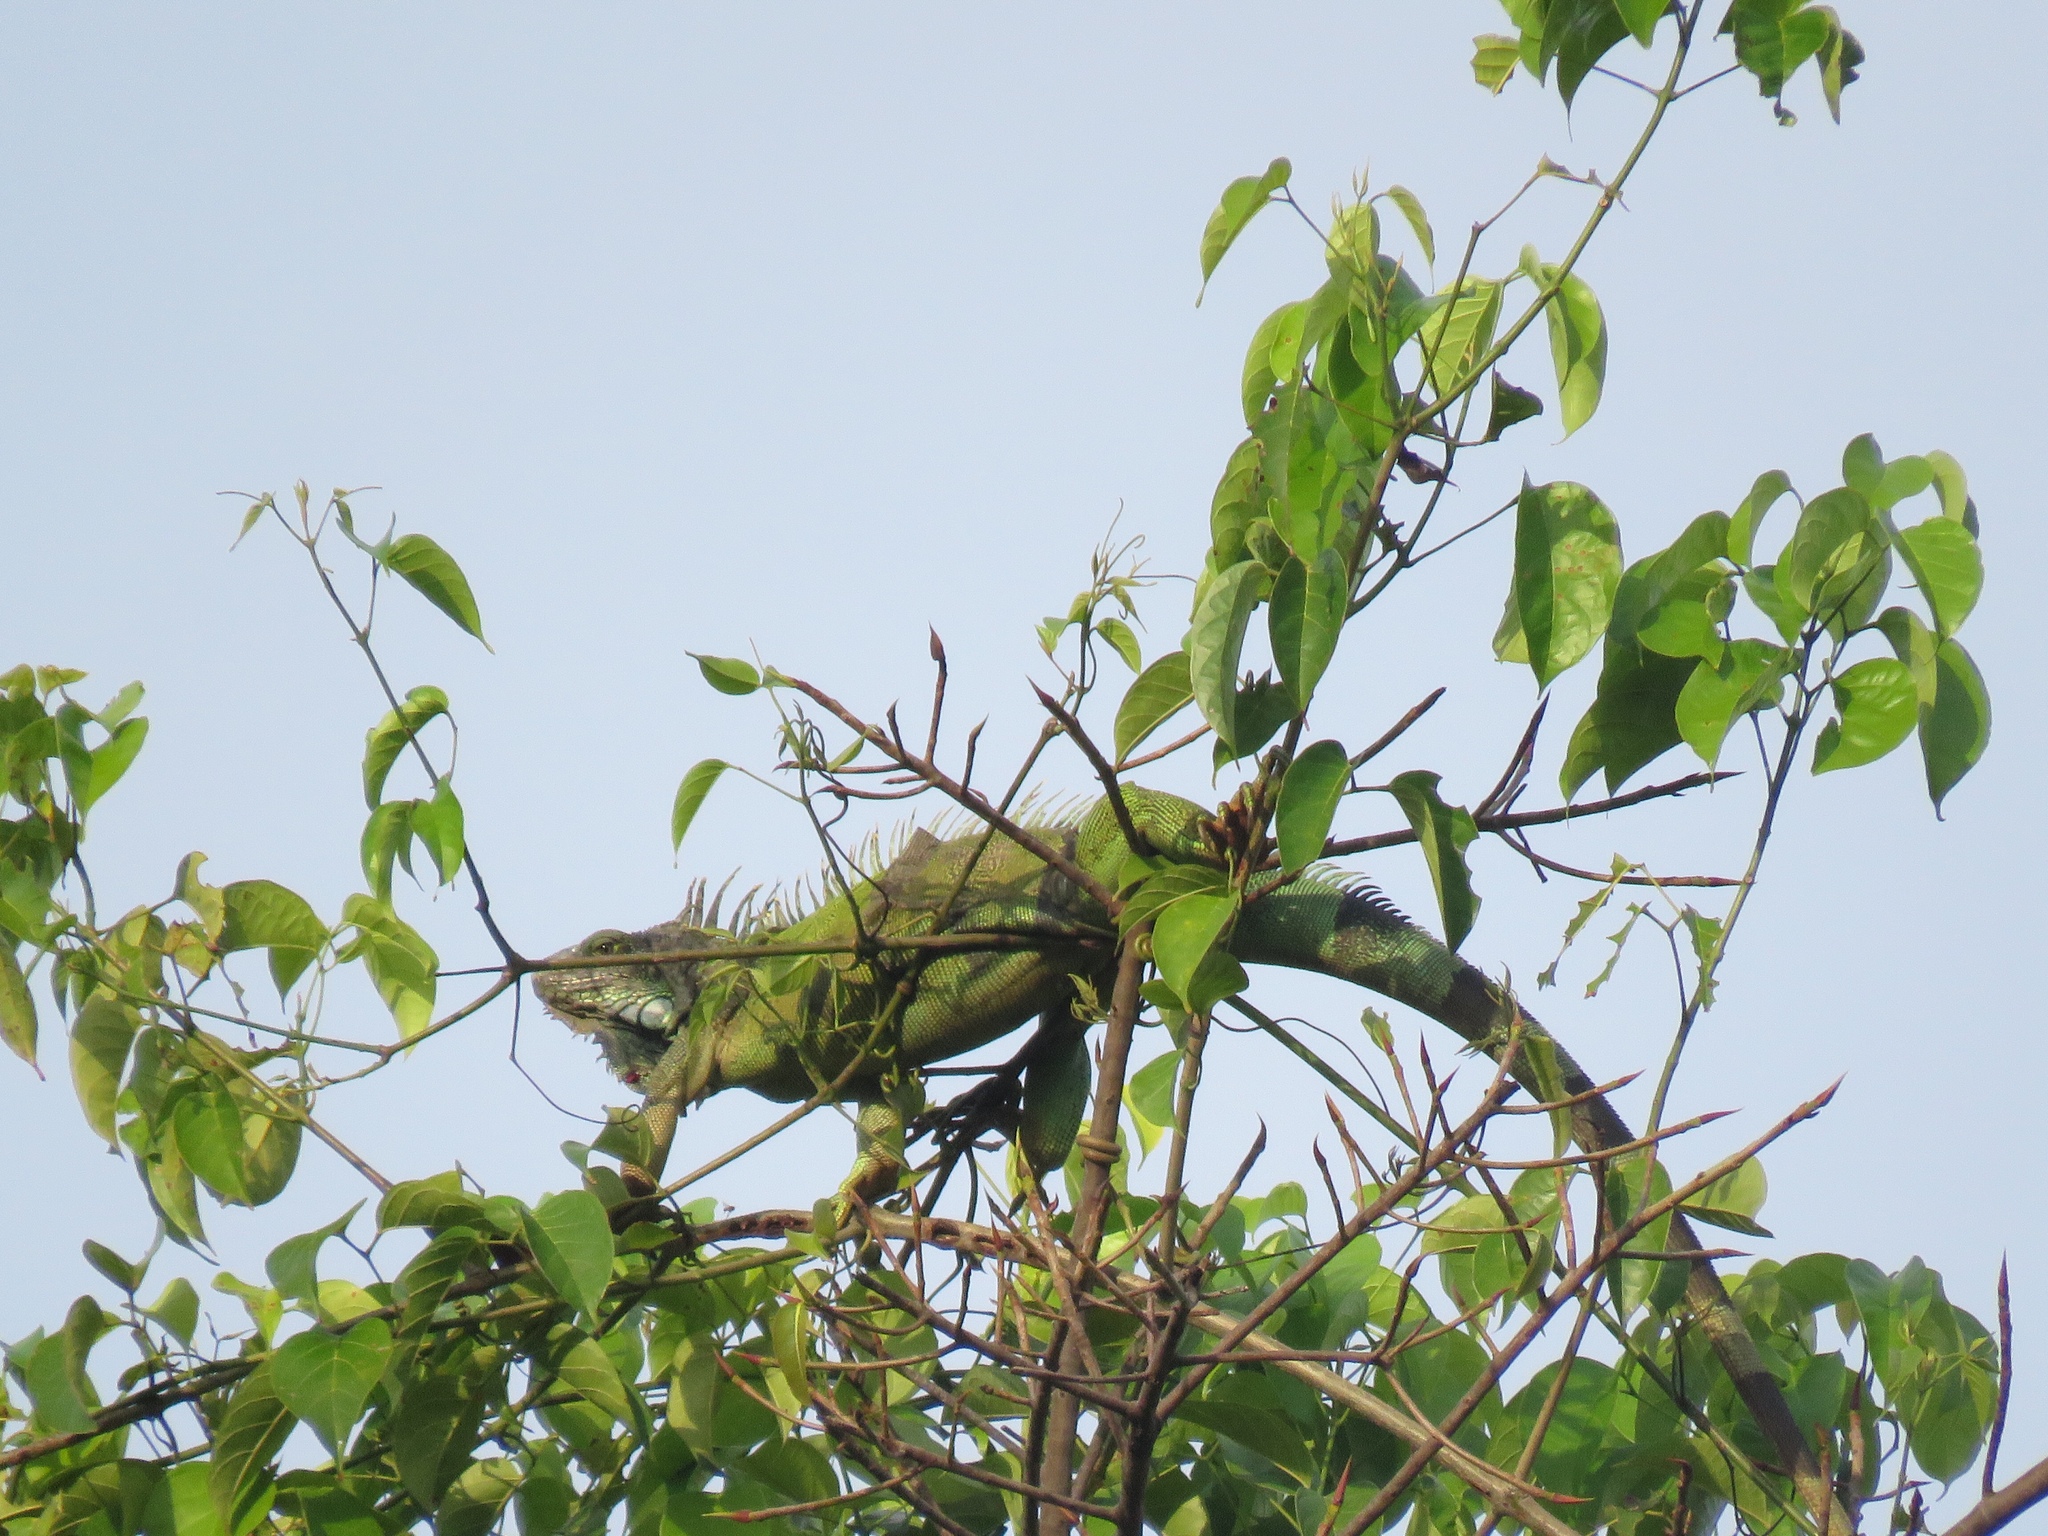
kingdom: Animalia
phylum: Chordata
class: Squamata
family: Iguanidae
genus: Iguana
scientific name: Iguana iguana
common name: Green iguana
